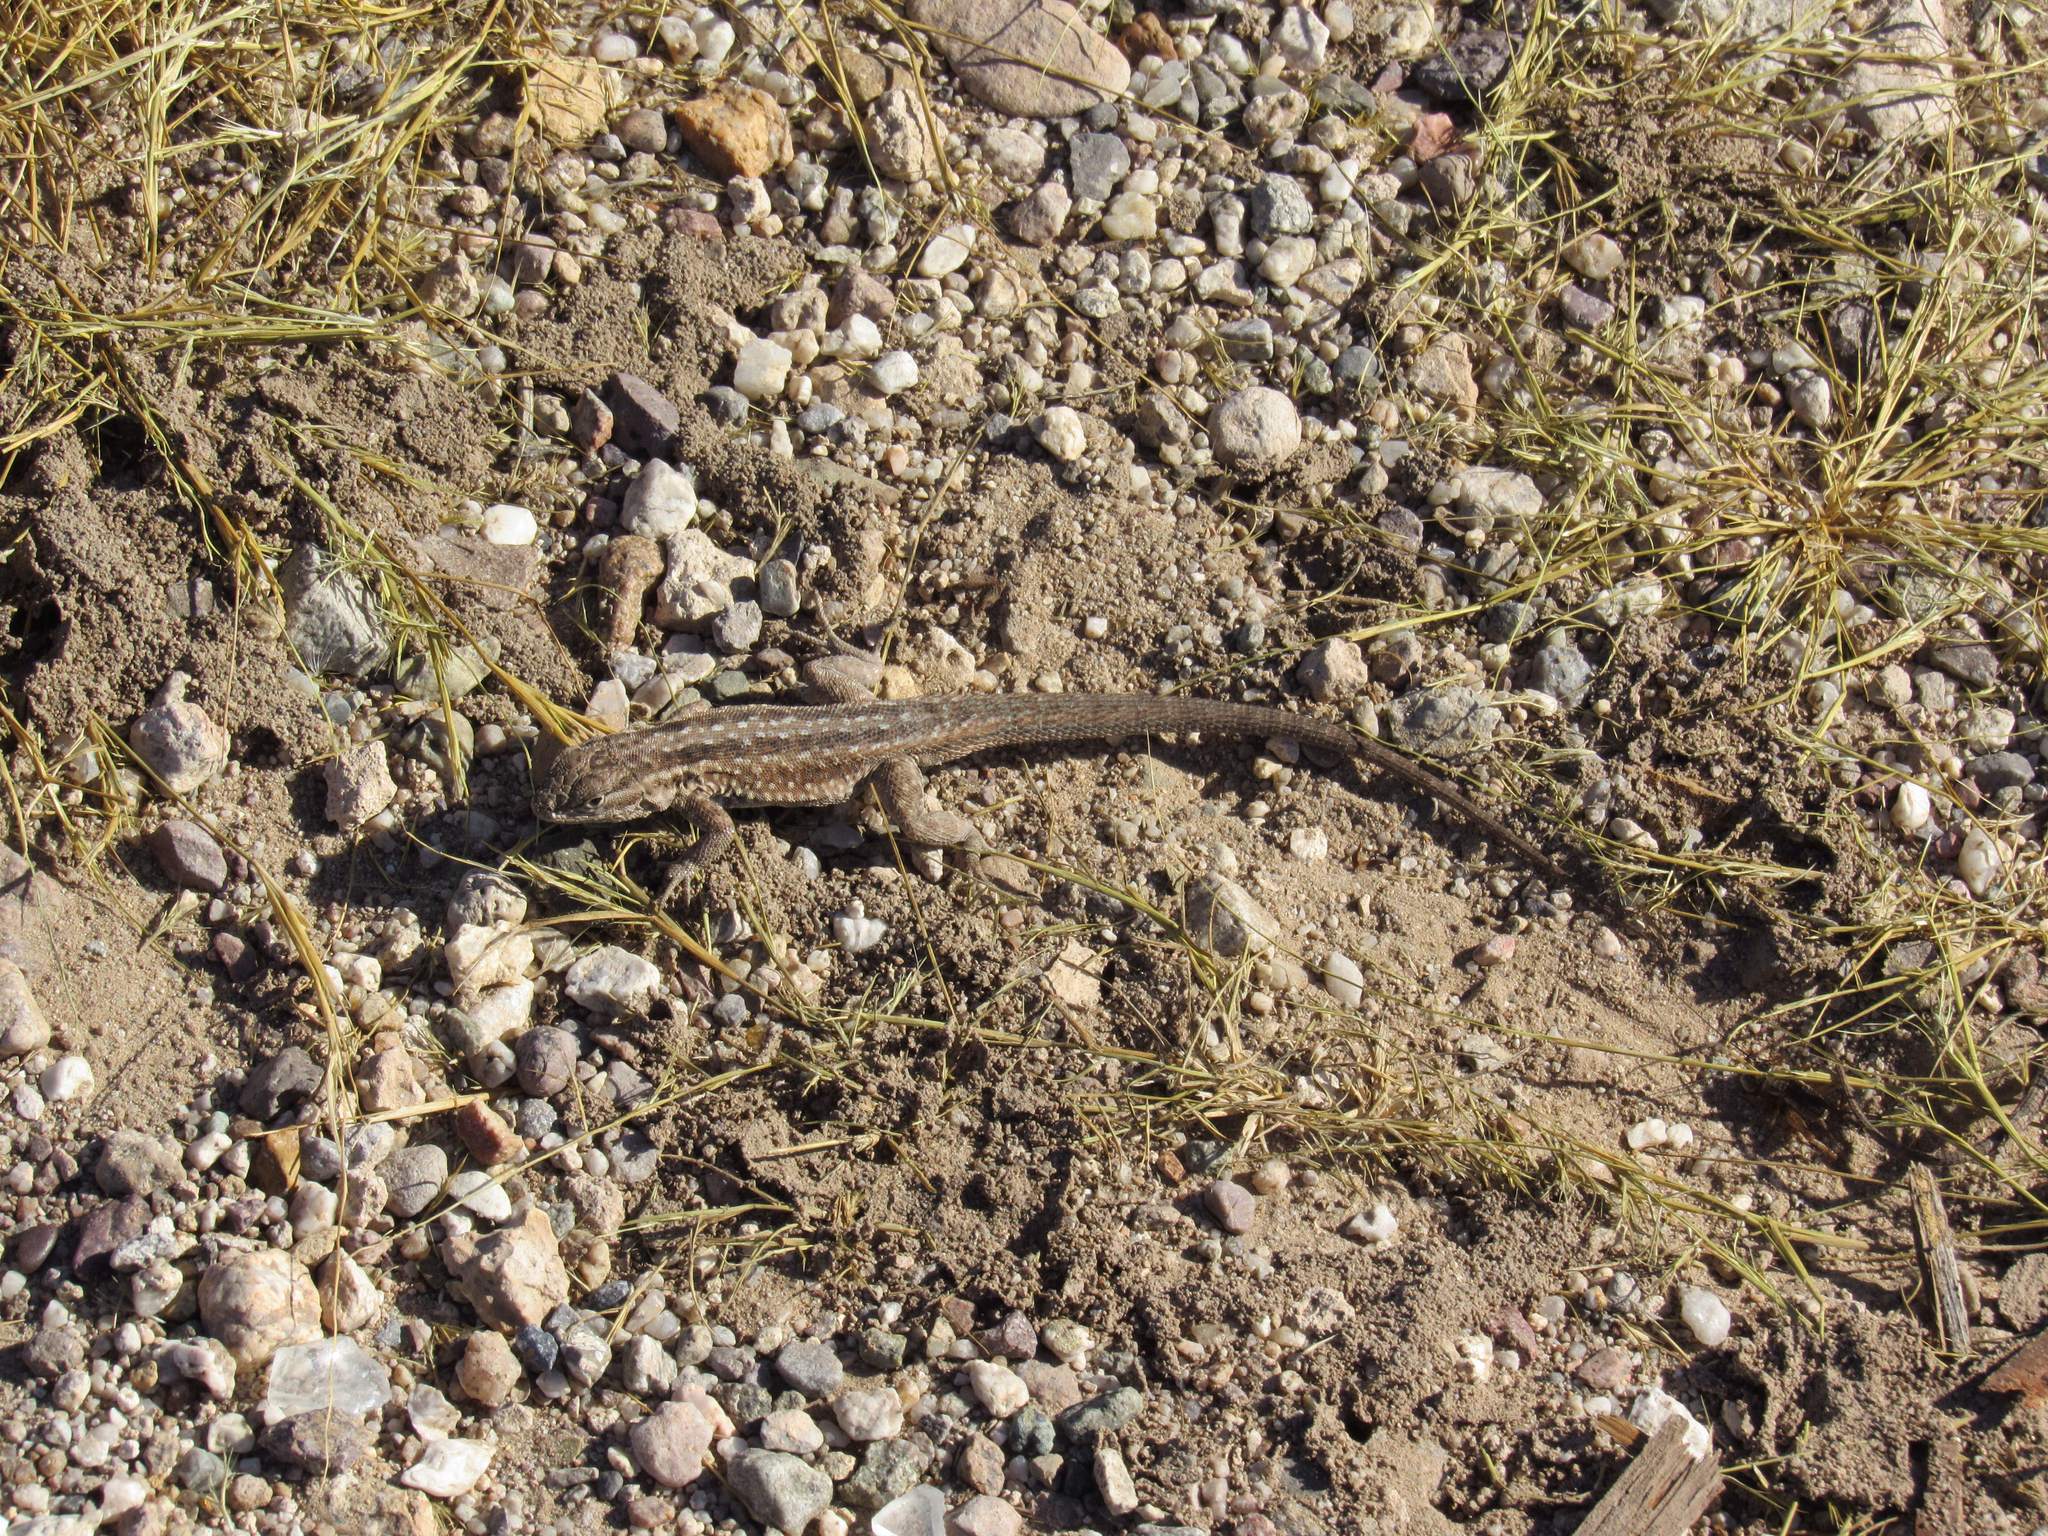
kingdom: Animalia
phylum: Chordata
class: Squamata
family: Phrynosomatidae
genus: Uta
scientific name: Uta stansburiana
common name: Side-blotched lizard
